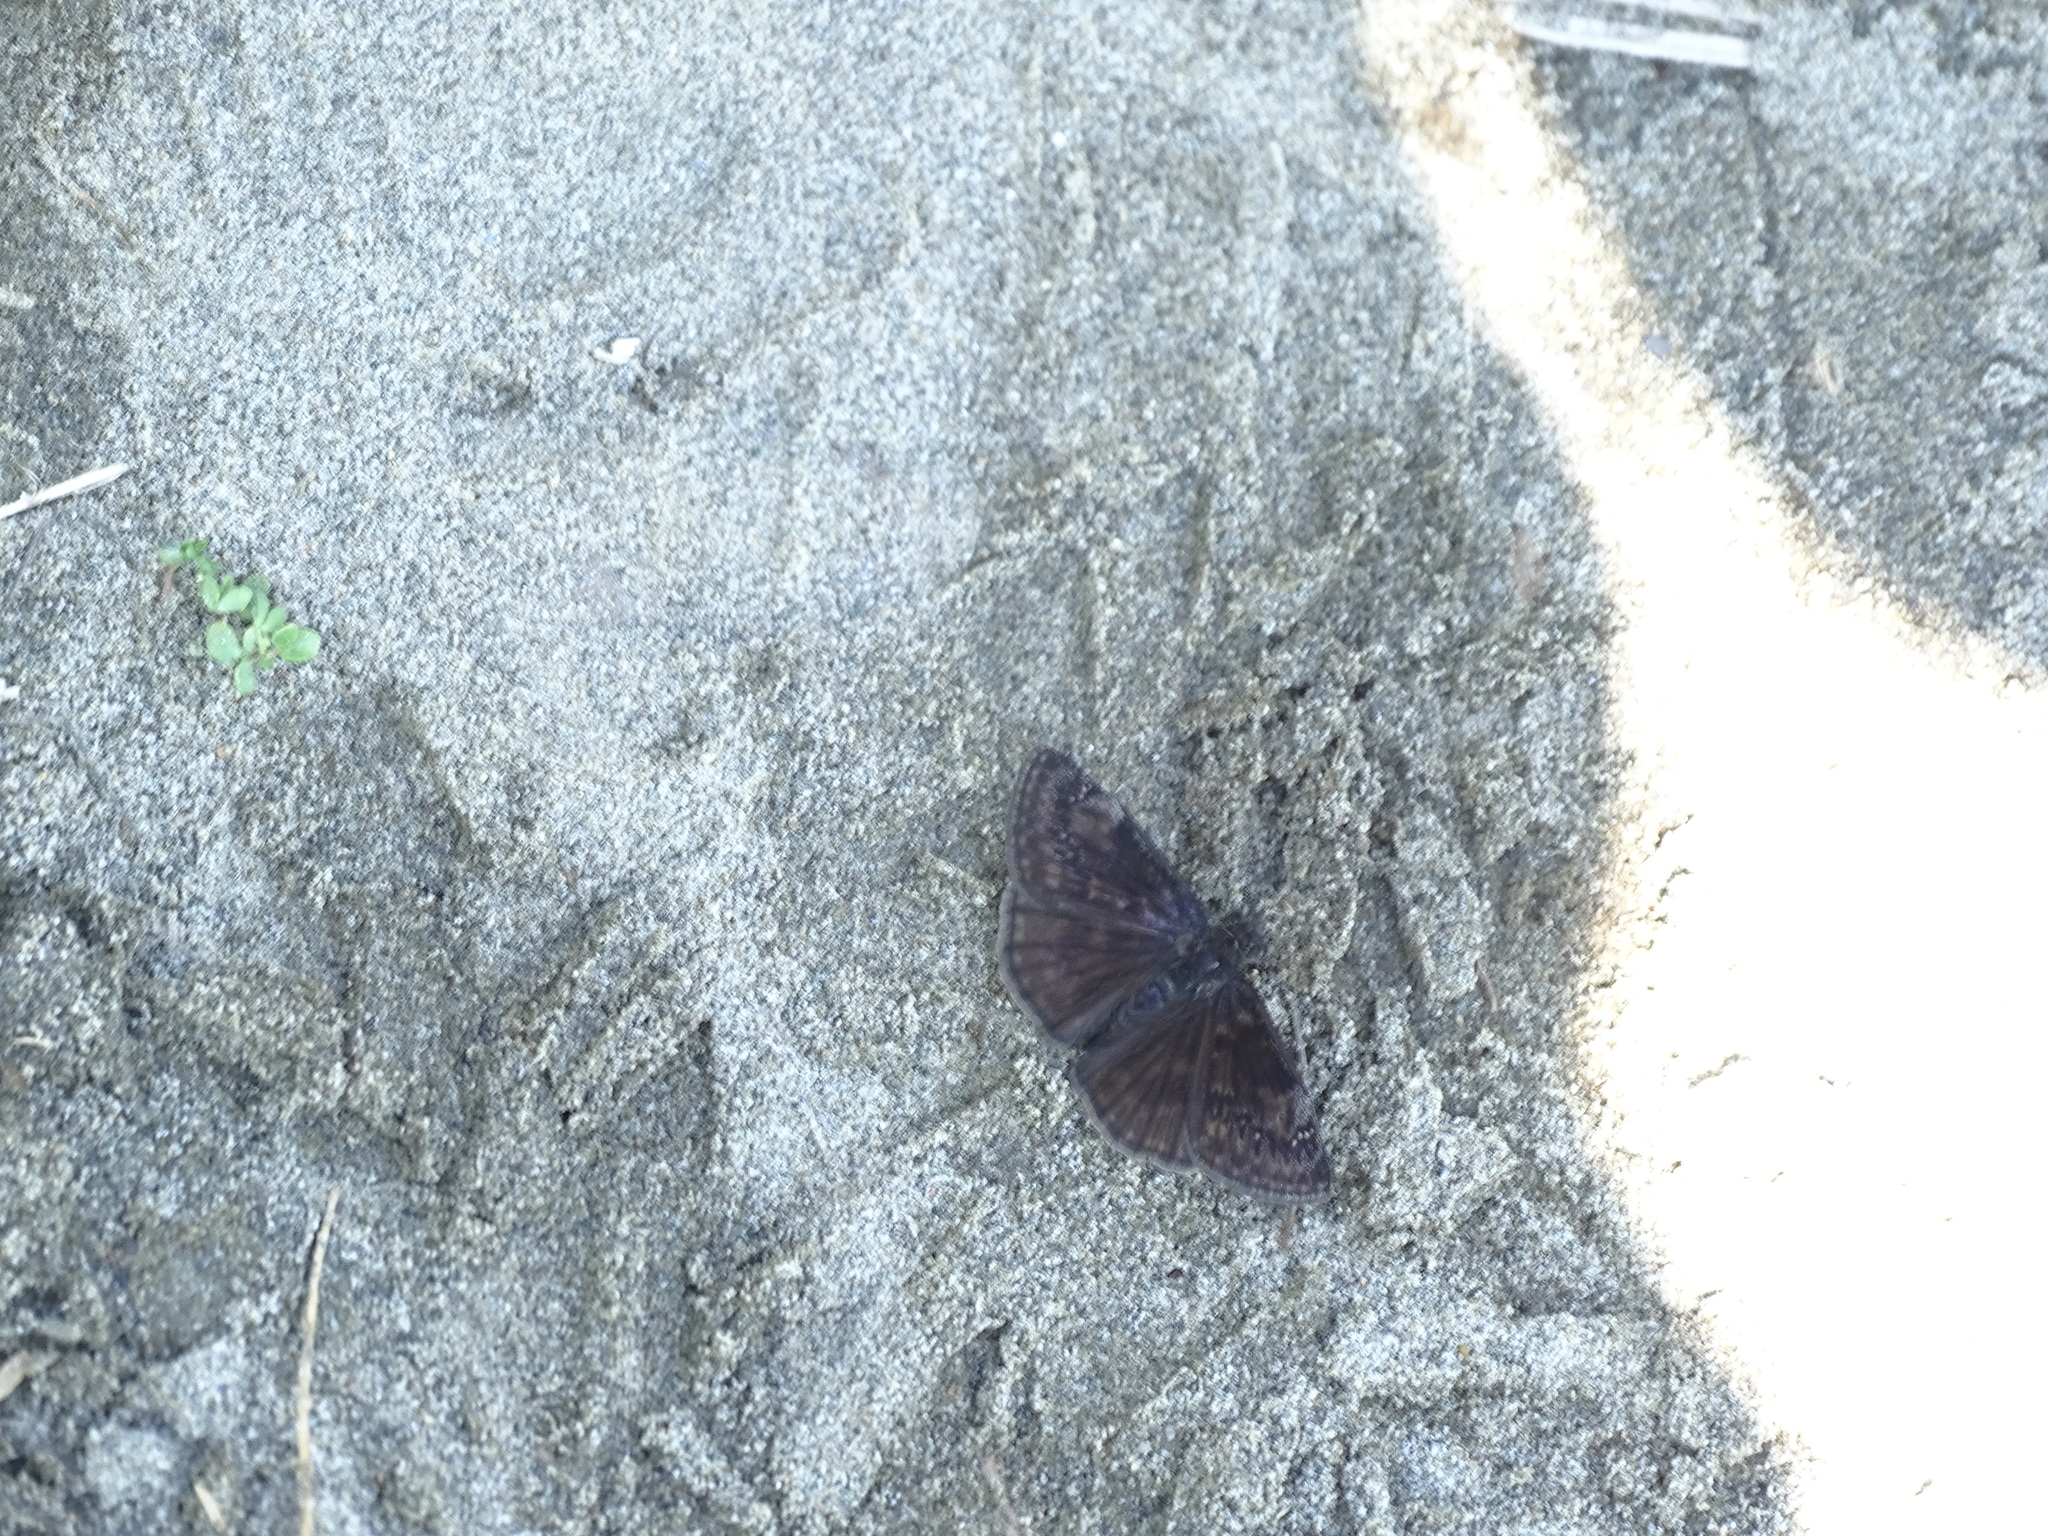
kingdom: Animalia
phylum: Arthropoda
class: Insecta
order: Lepidoptera
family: Hesperiidae
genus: Erynnis
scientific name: Erynnis baptisiae
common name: Wild indigo duskywing
